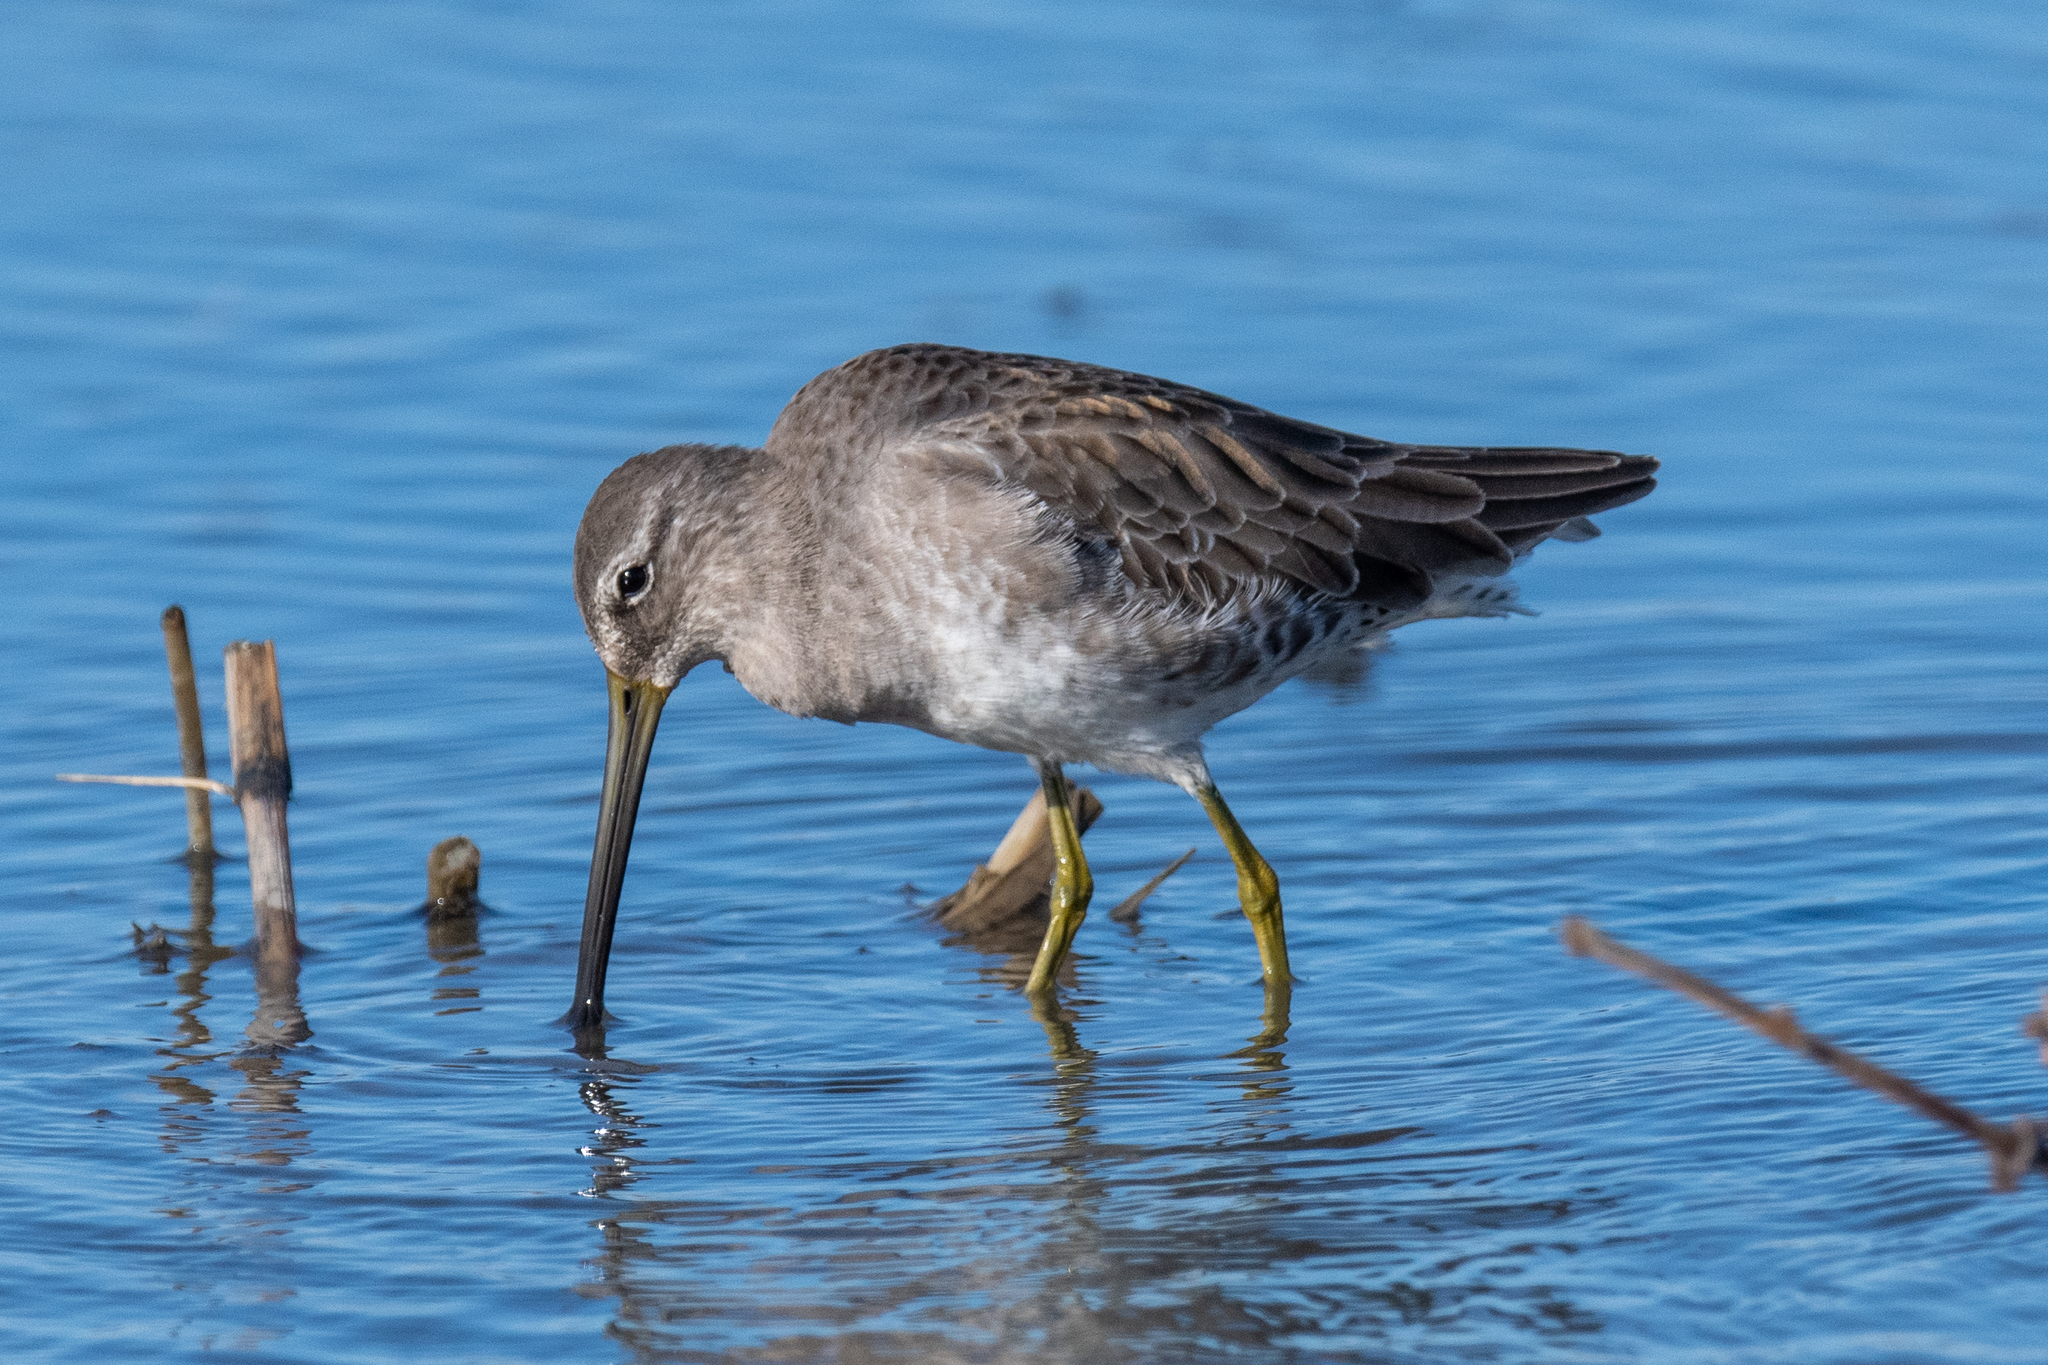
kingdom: Animalia
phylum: Chordata
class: Aves
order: Charadriiformes
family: Scolopacidae
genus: Limnodromus
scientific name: Limnodromus scolopaceus
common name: Long-billed dowitcher
